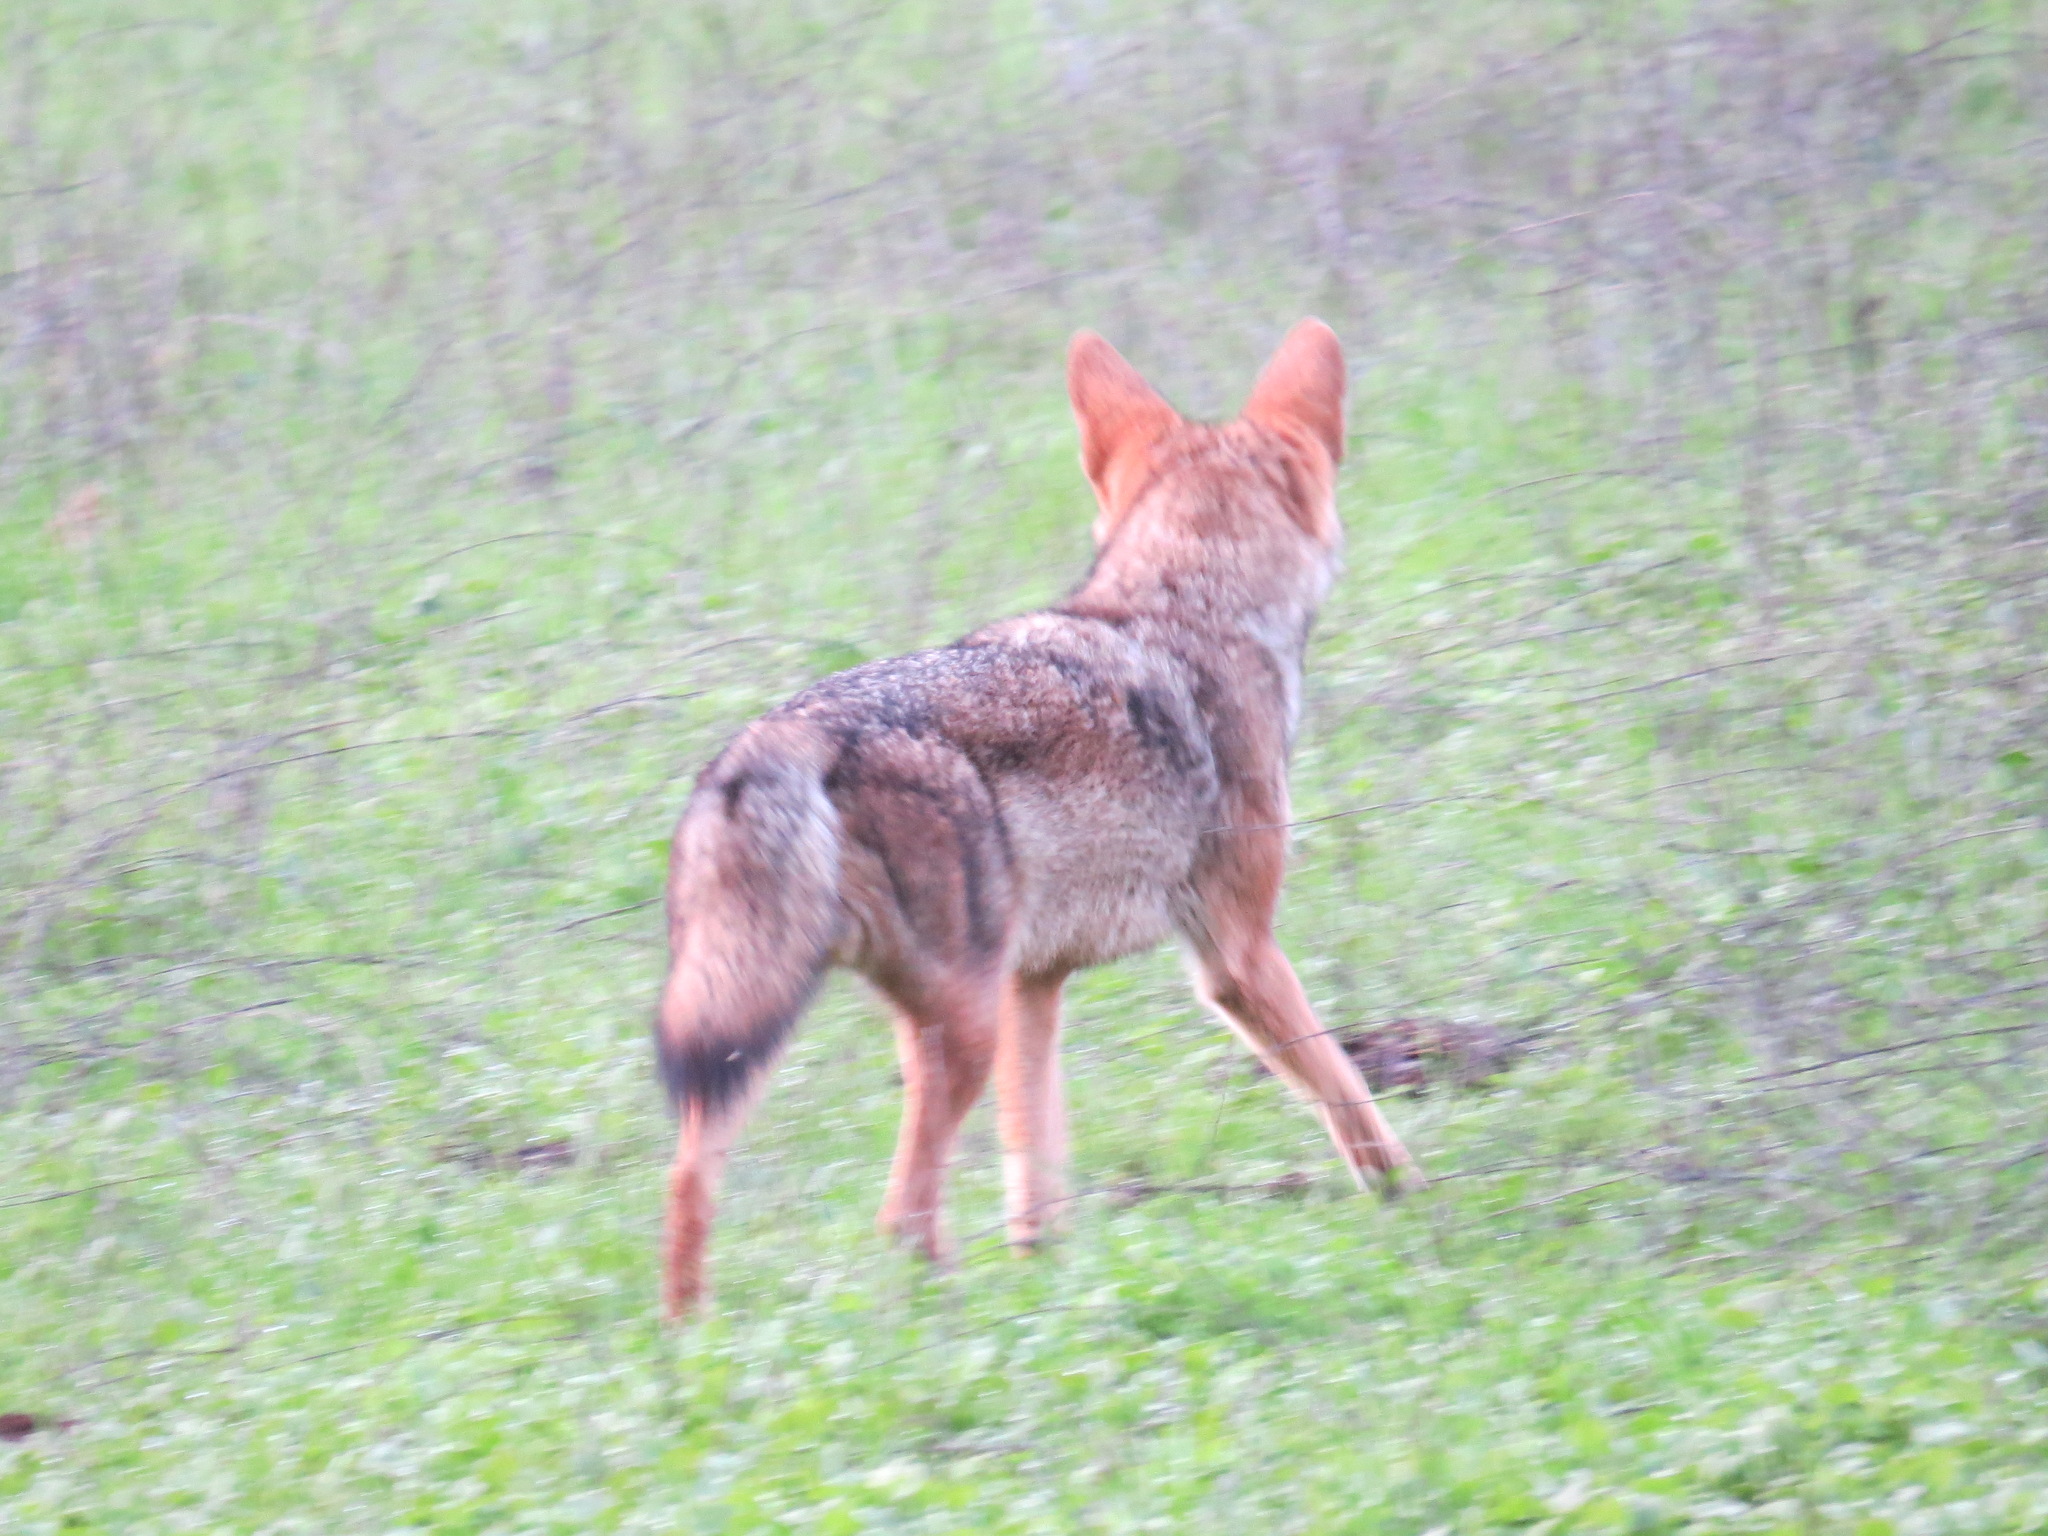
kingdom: Animalia
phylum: Chordata
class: Mammalia
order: Carnivora
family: Canidae
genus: Canis
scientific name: Canis latrans
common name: Coyote
